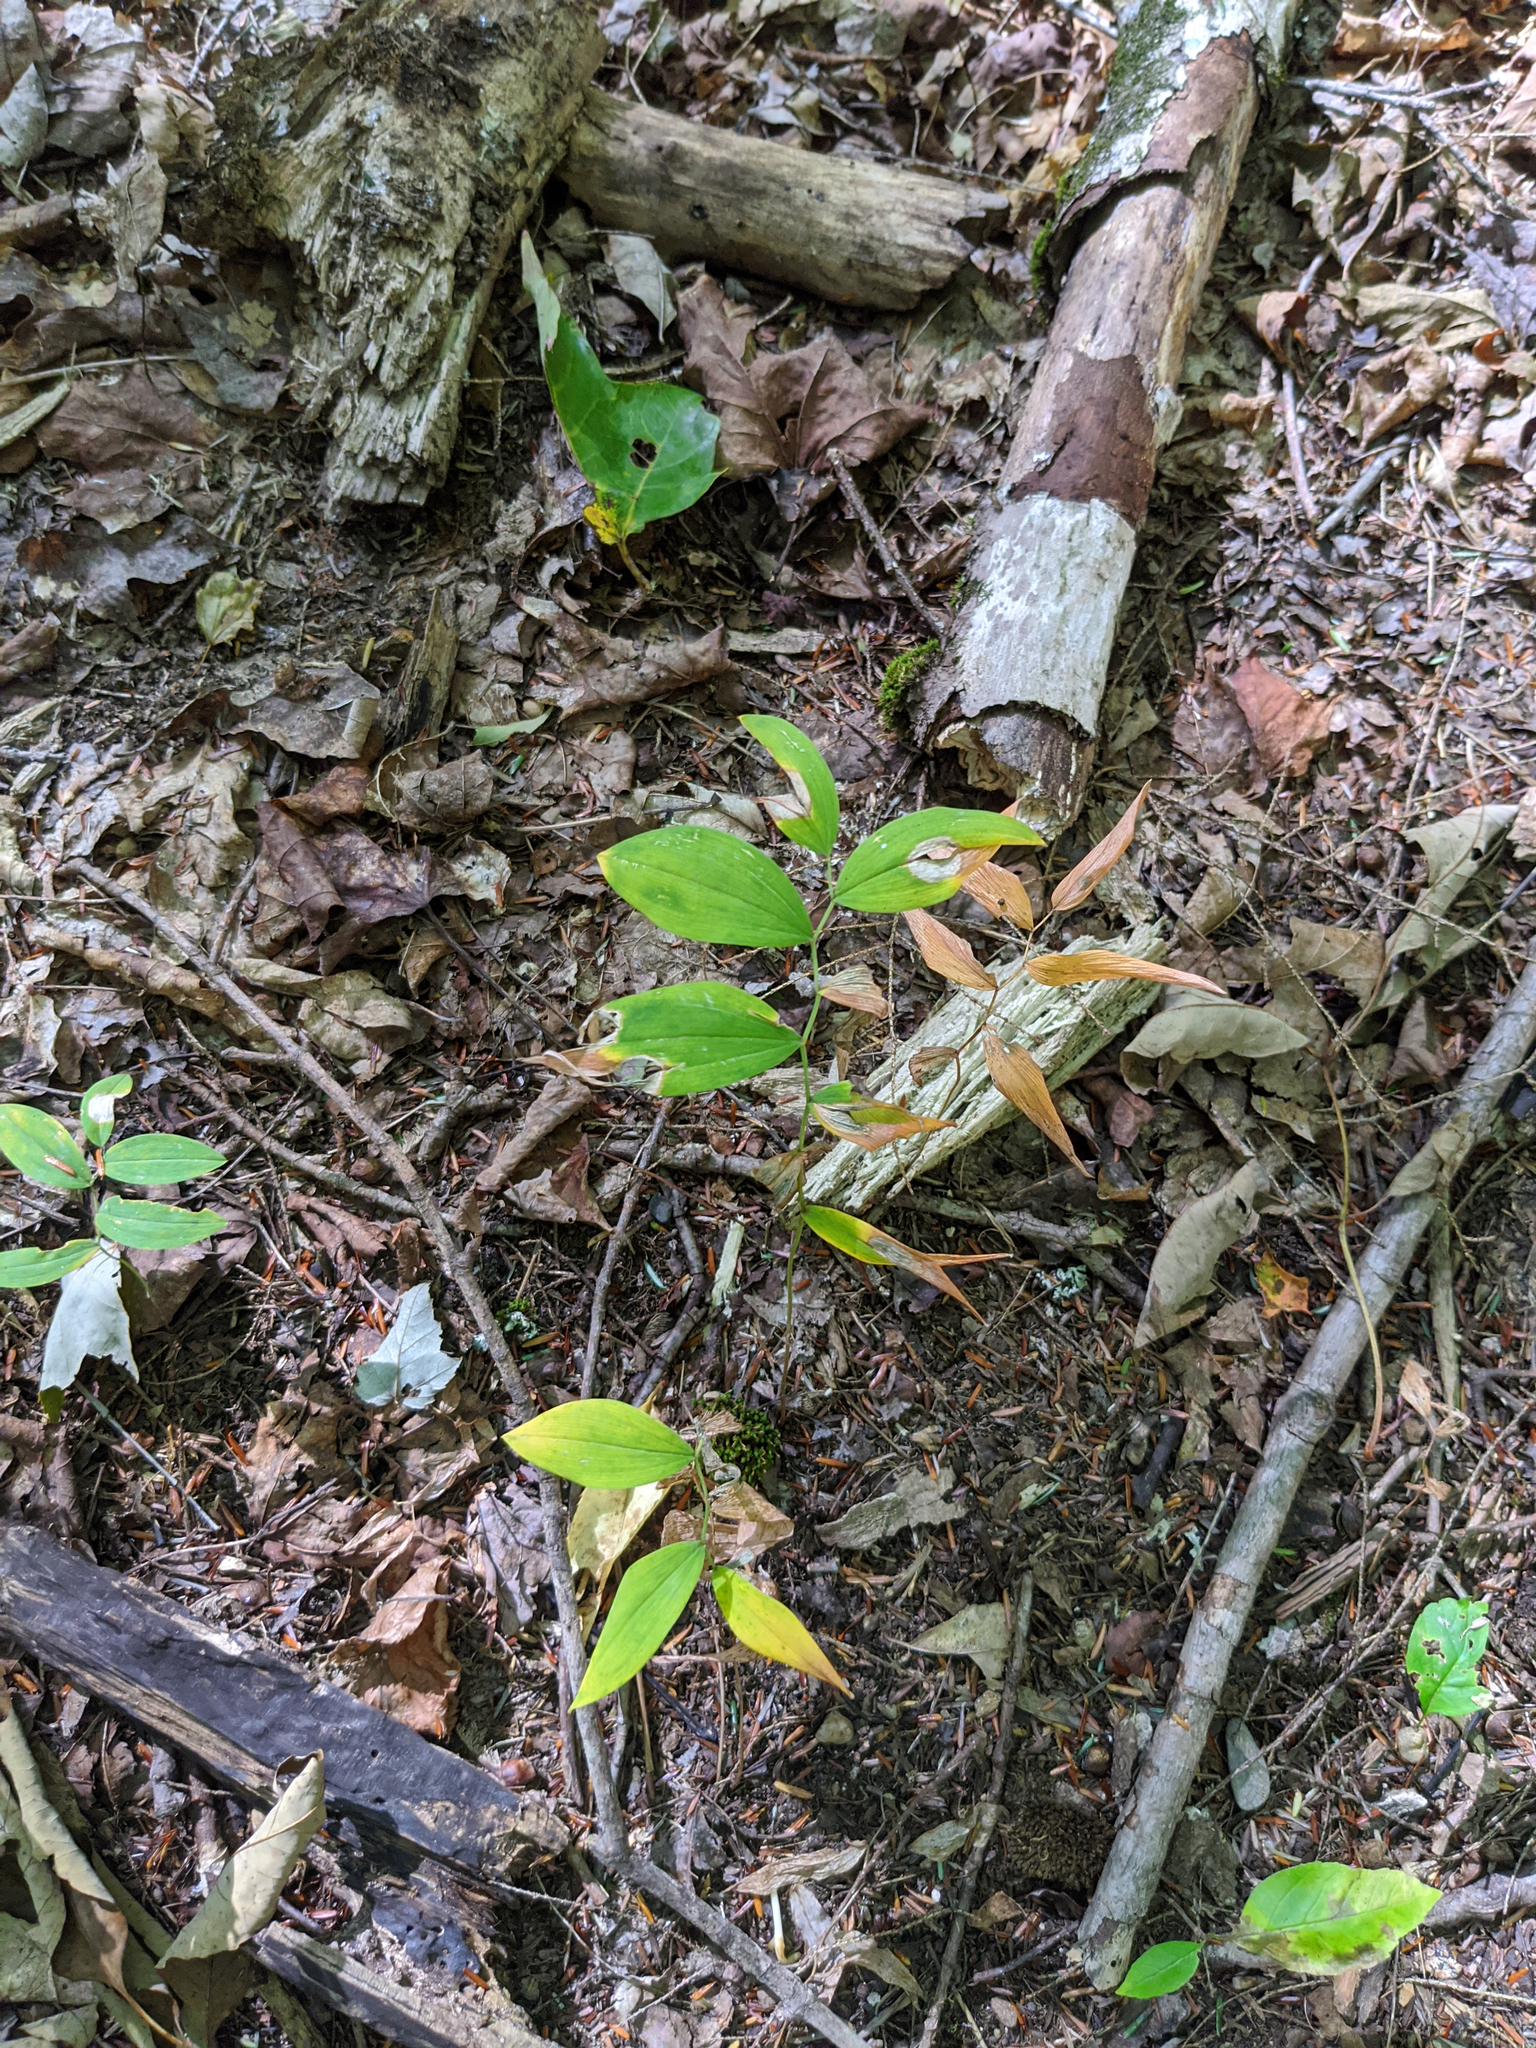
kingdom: Plantae
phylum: Tracheophyta
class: Liliopsida
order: Liliales
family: Colchicaceae
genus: Uvularia
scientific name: Uvularia sessilifolia
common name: Straw-lily
